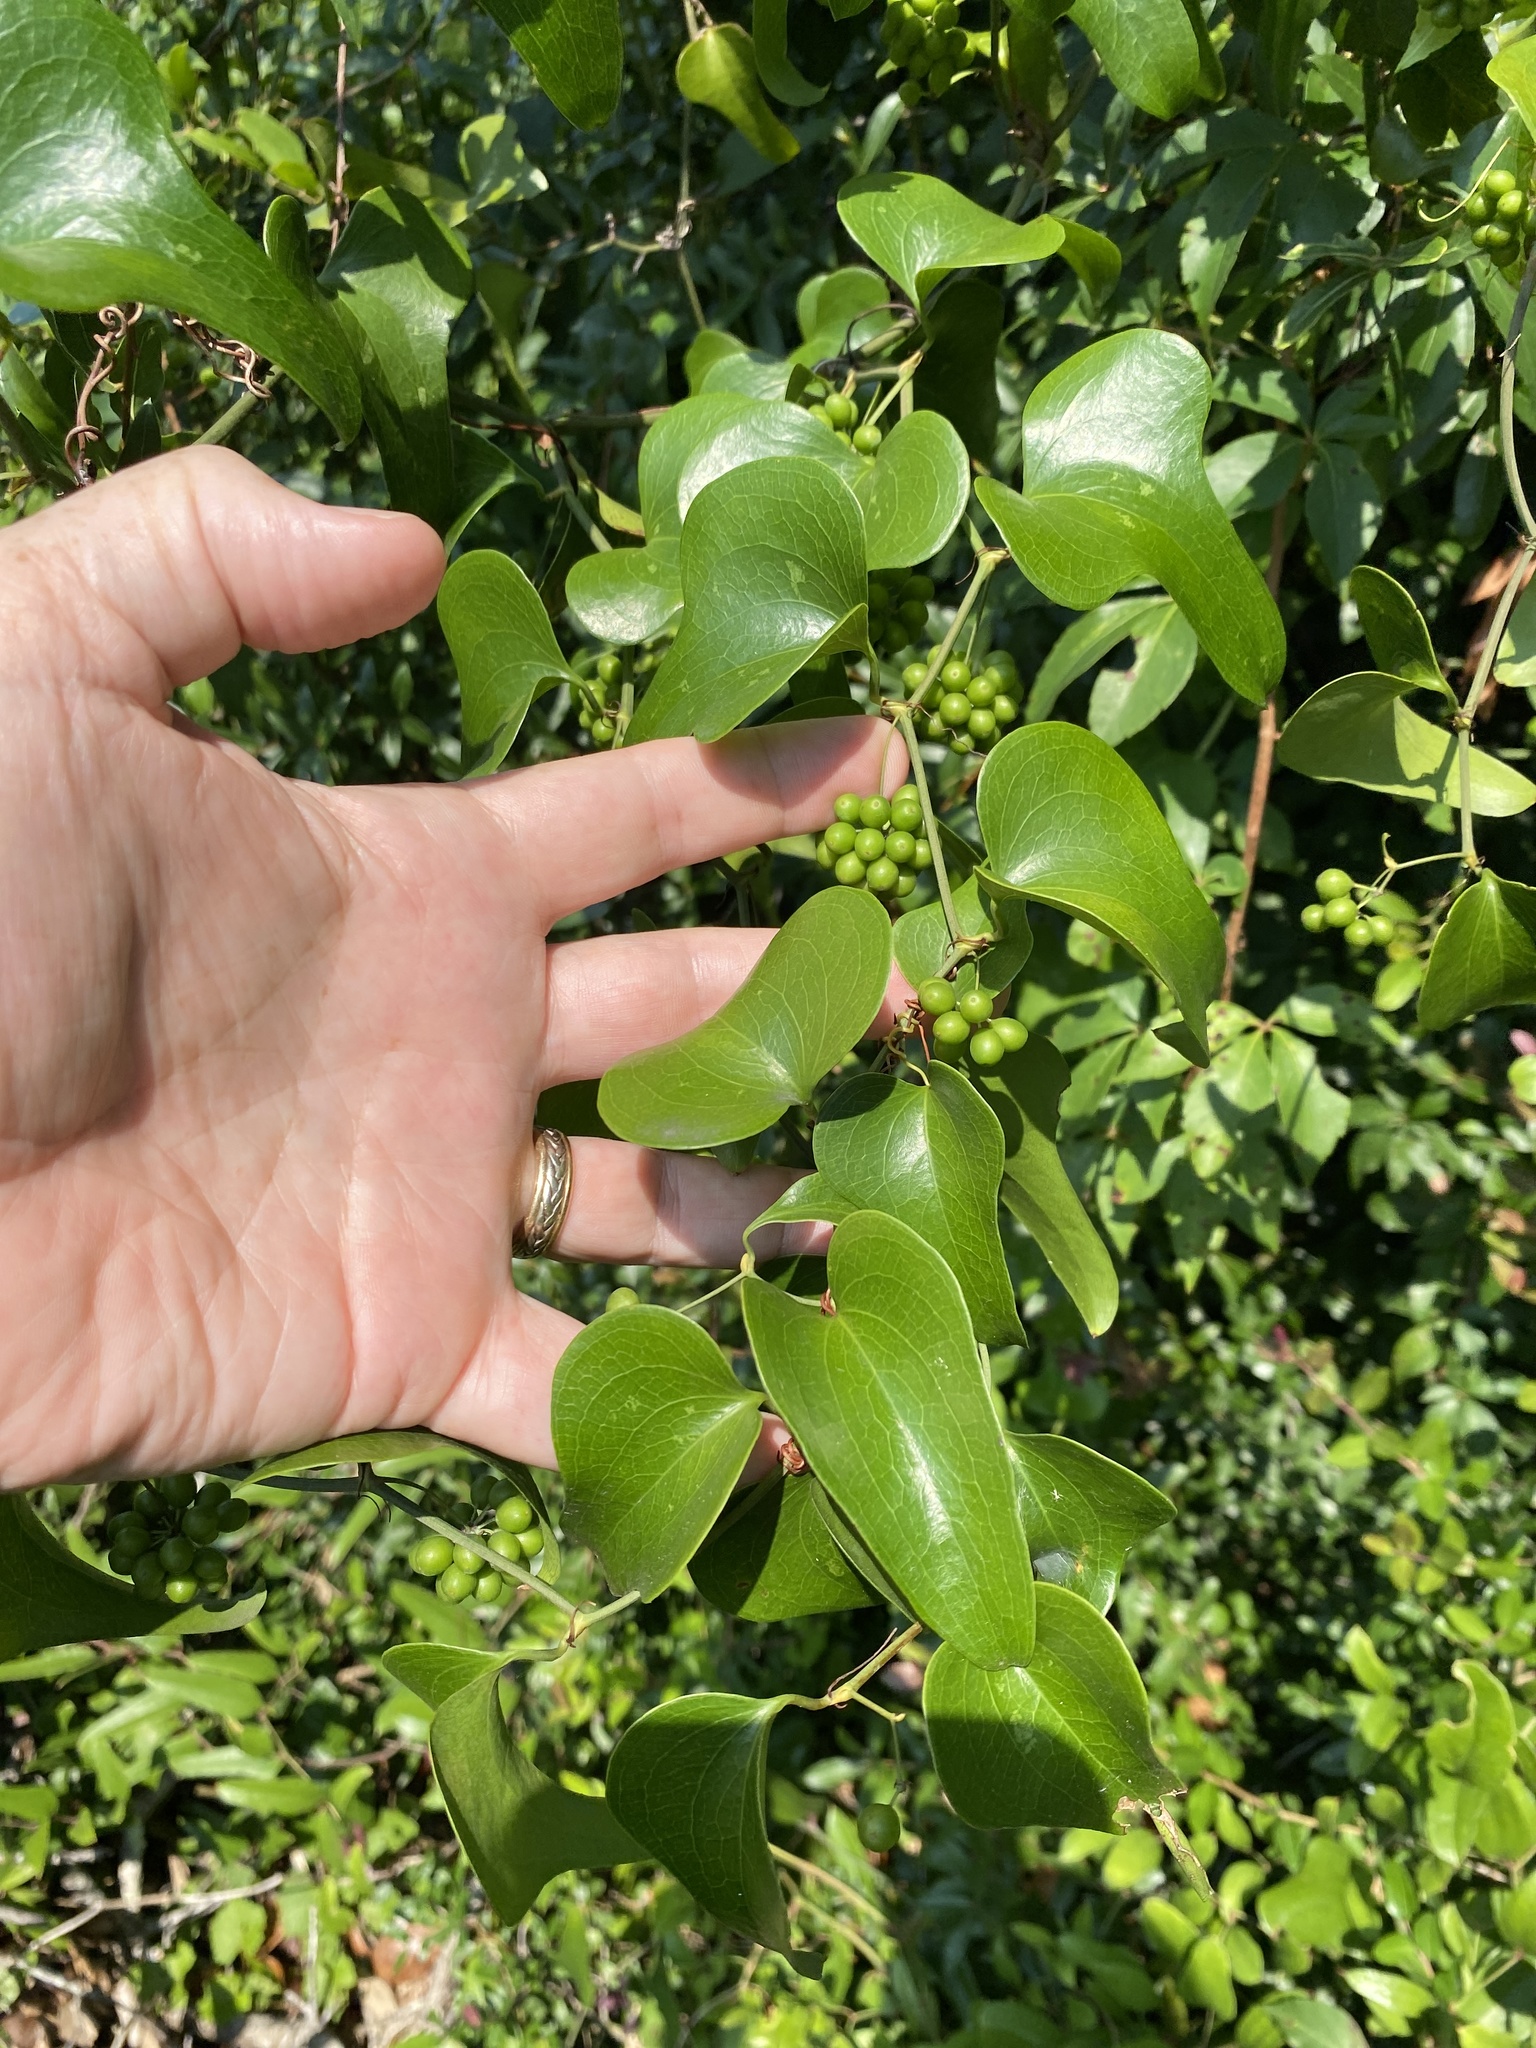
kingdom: Plantae
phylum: Tracheophyta
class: Liliopsida
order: Liliales
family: Smilacaceae
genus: Smilax
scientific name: Smilax bona-nox
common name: Catbrier
